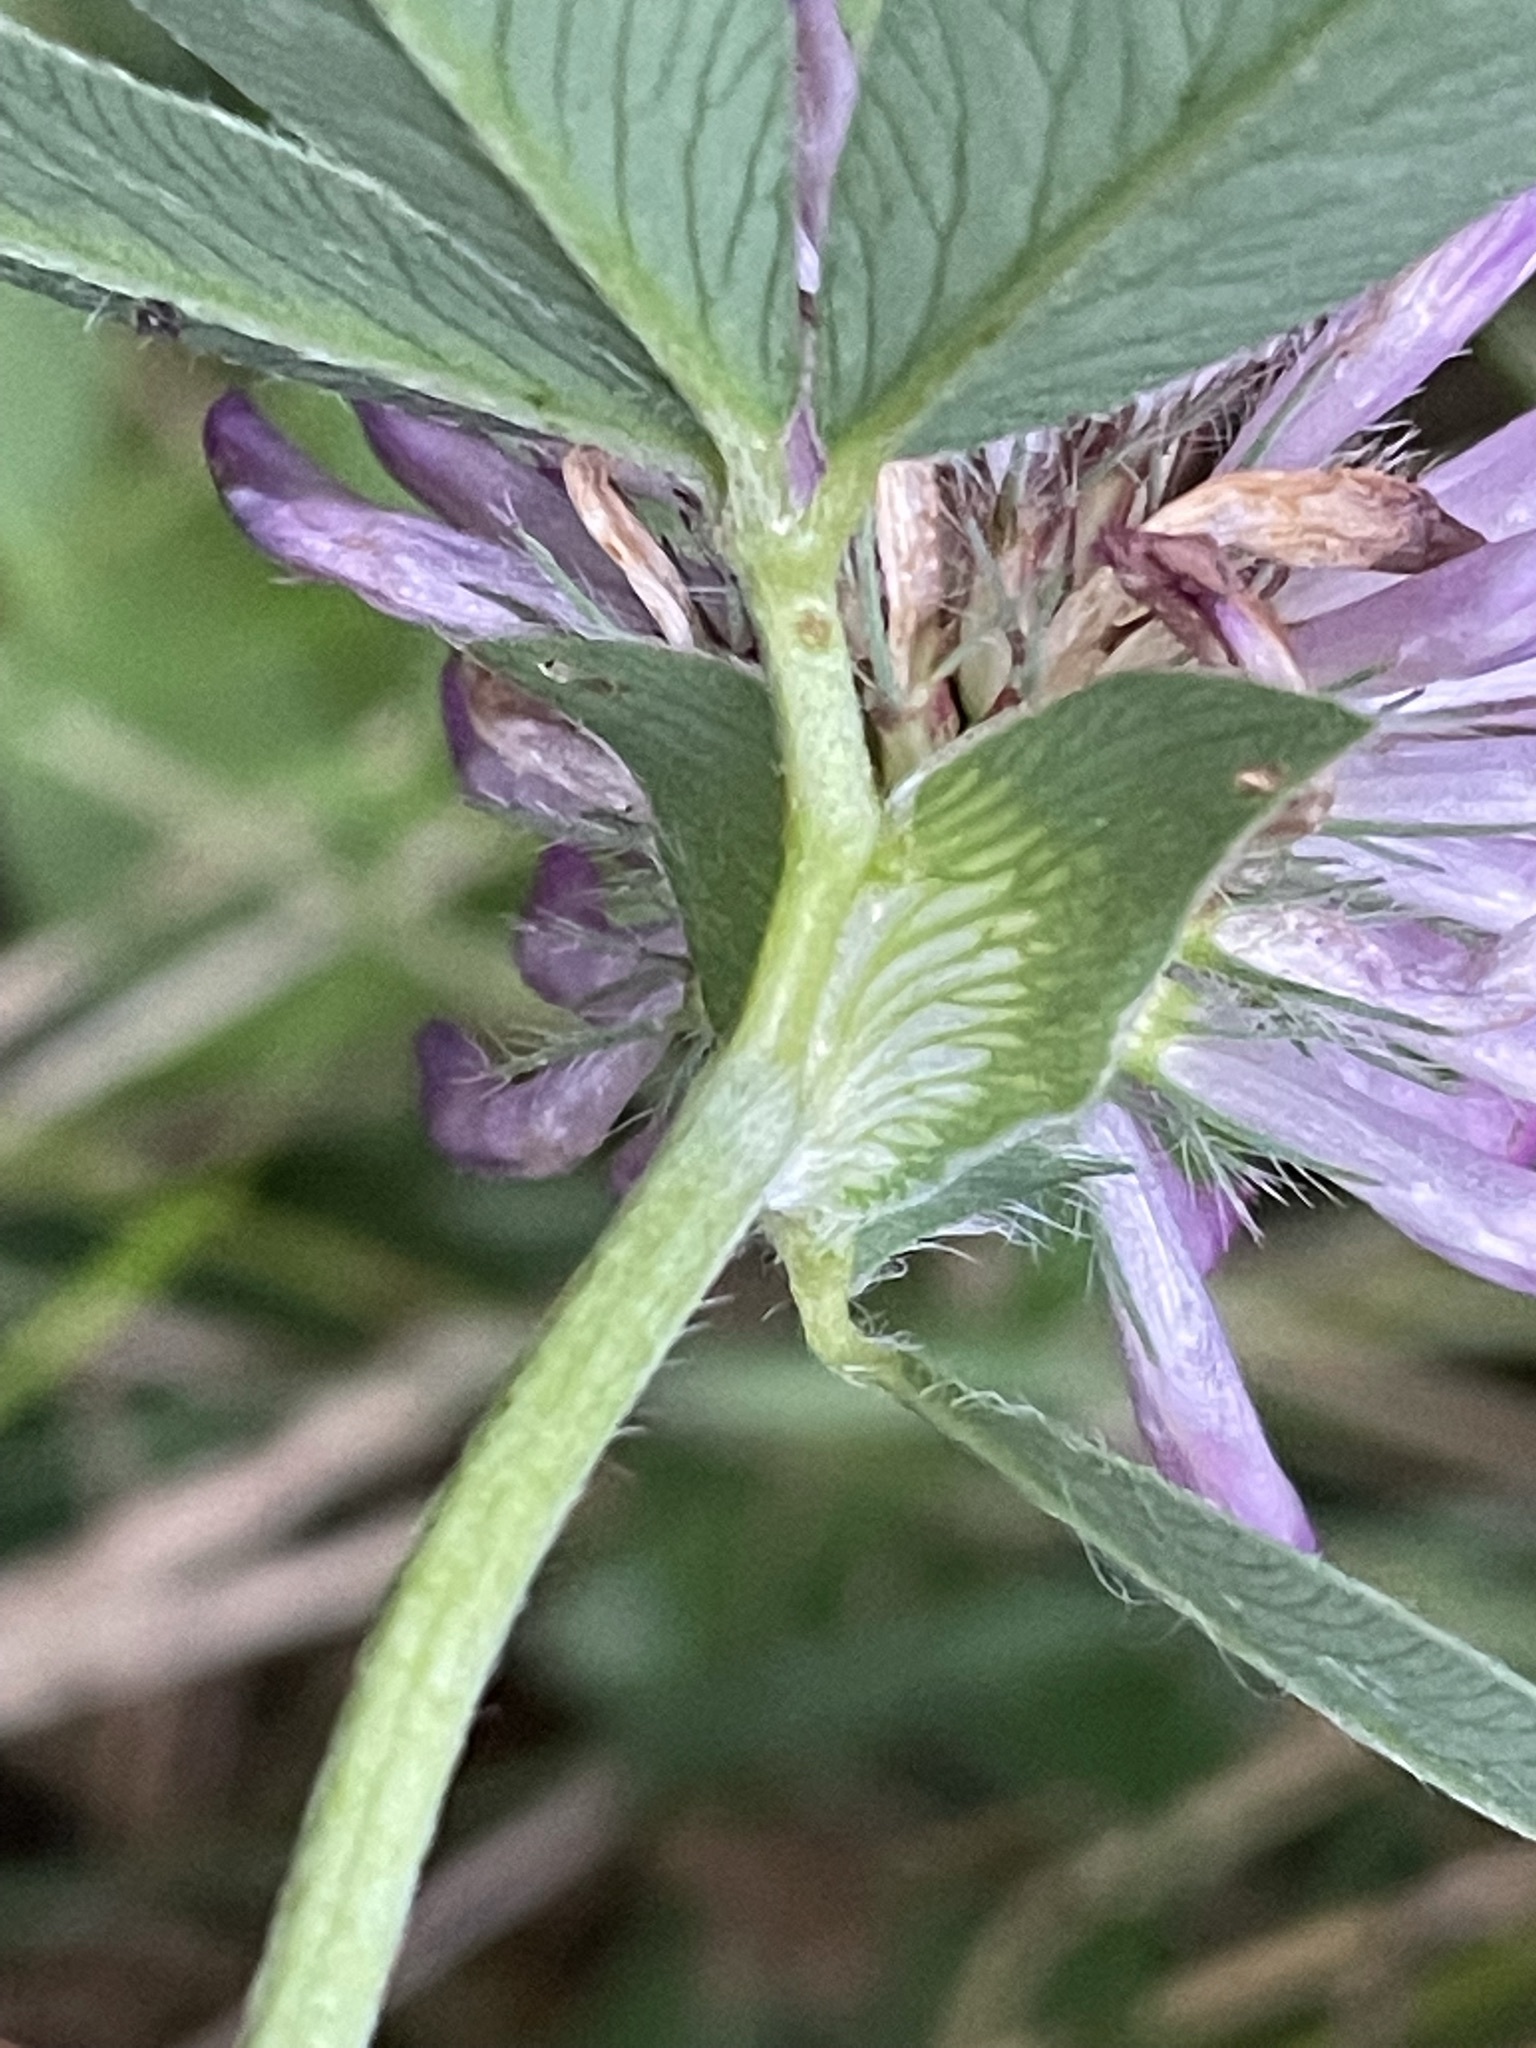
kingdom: Plantae
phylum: Tracheophyta
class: Magnoliopsida
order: Fabales
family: Fabaceae
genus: Trifolium
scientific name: Trifolium medium
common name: Zigzag clover
